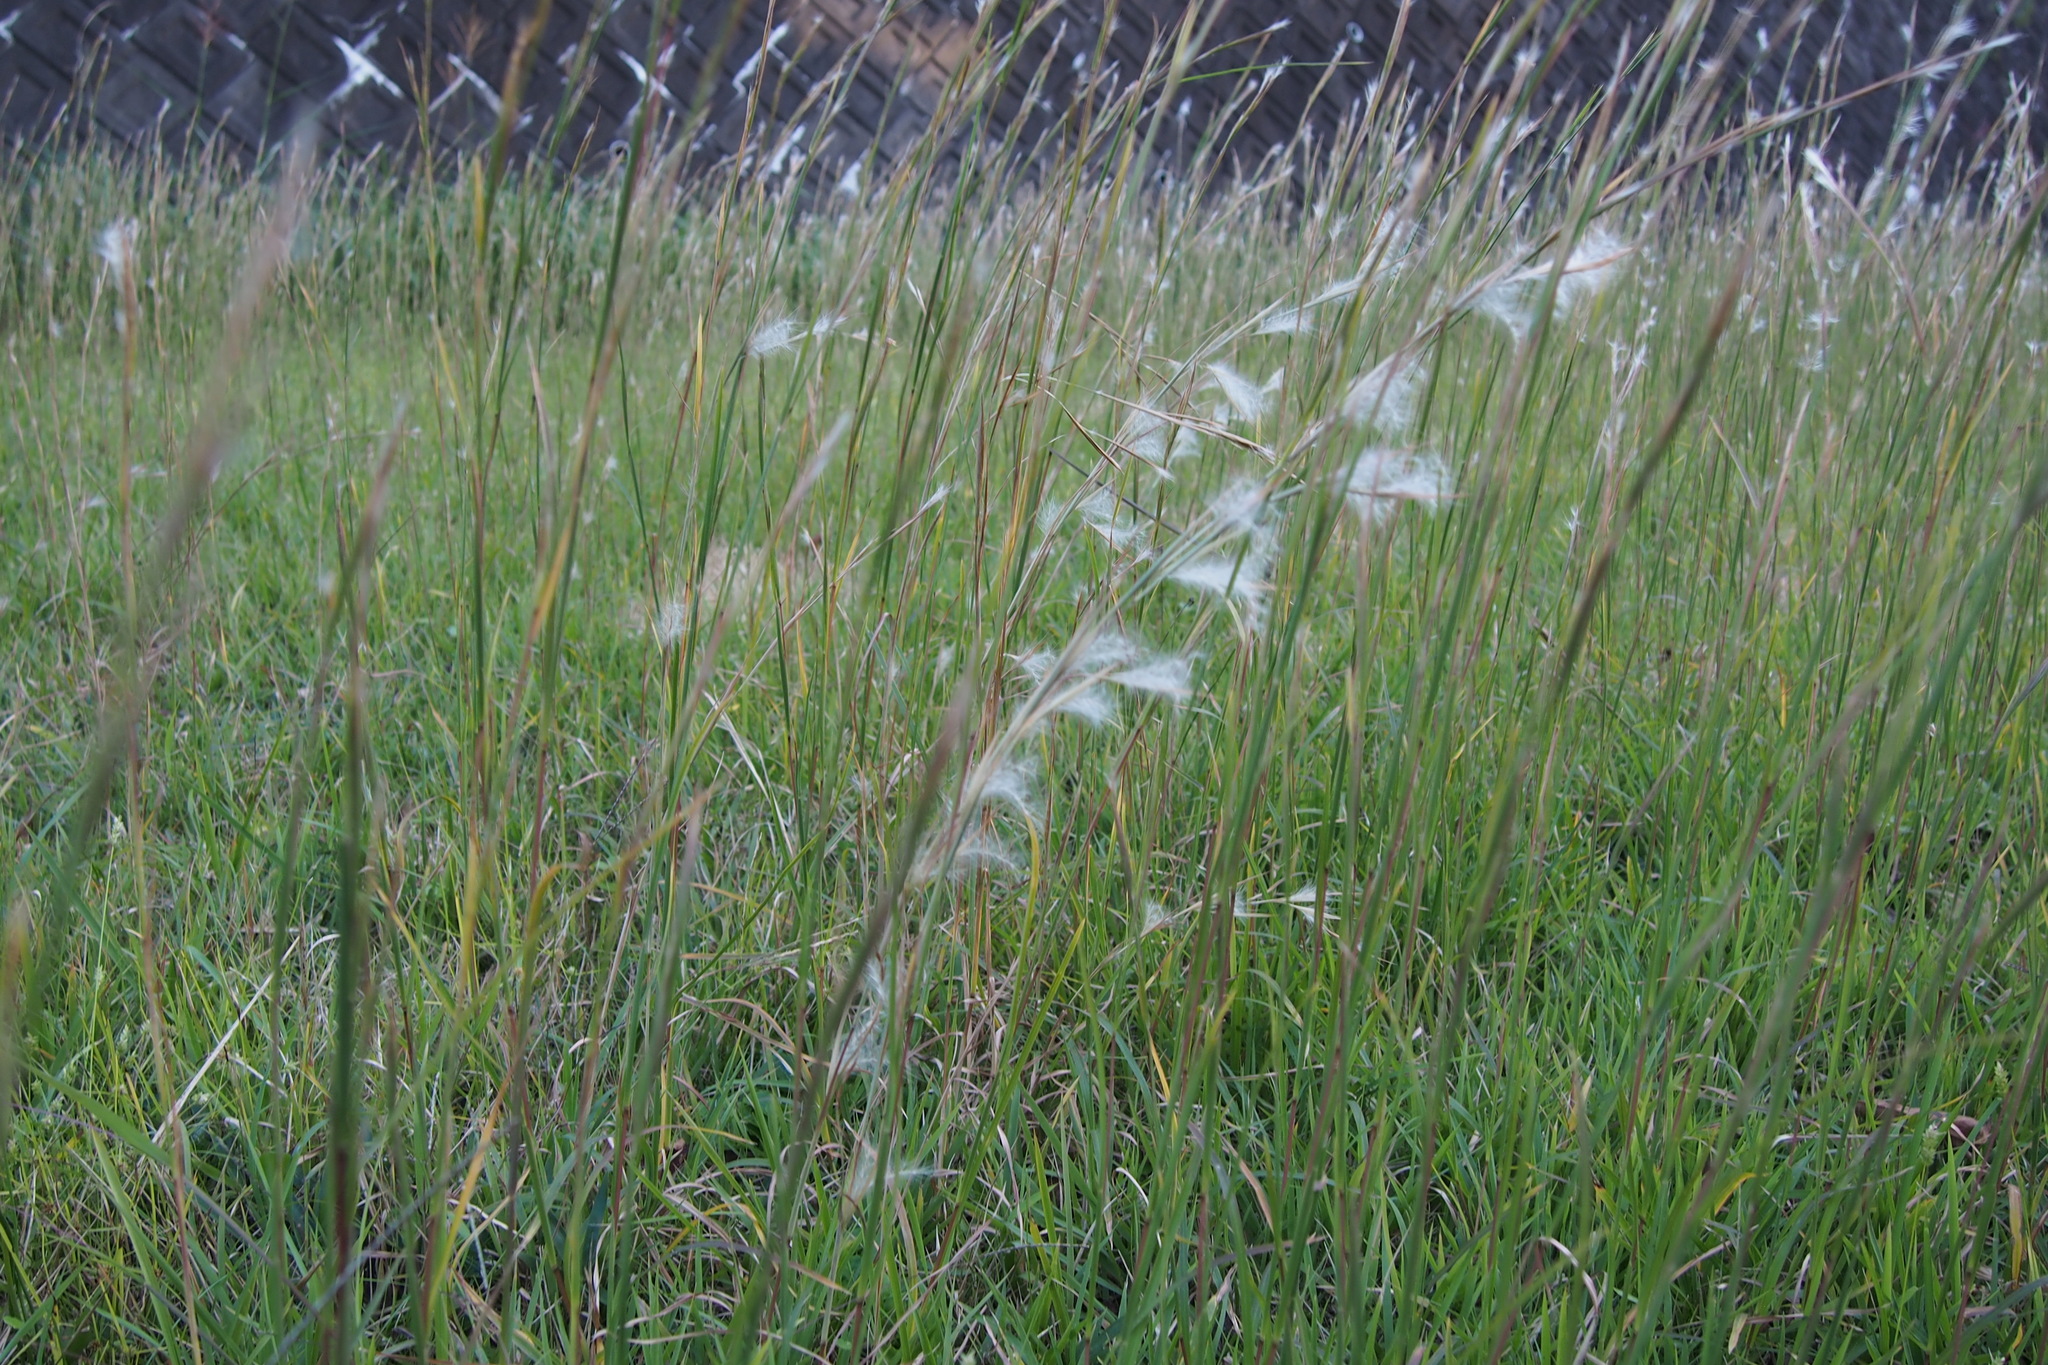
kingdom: Plantae
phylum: Tracheophyta
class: Liliopsida
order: Poales
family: Poaceae
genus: Andropogon
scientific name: Andropogon virginicus
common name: Broomsedge bluestem
